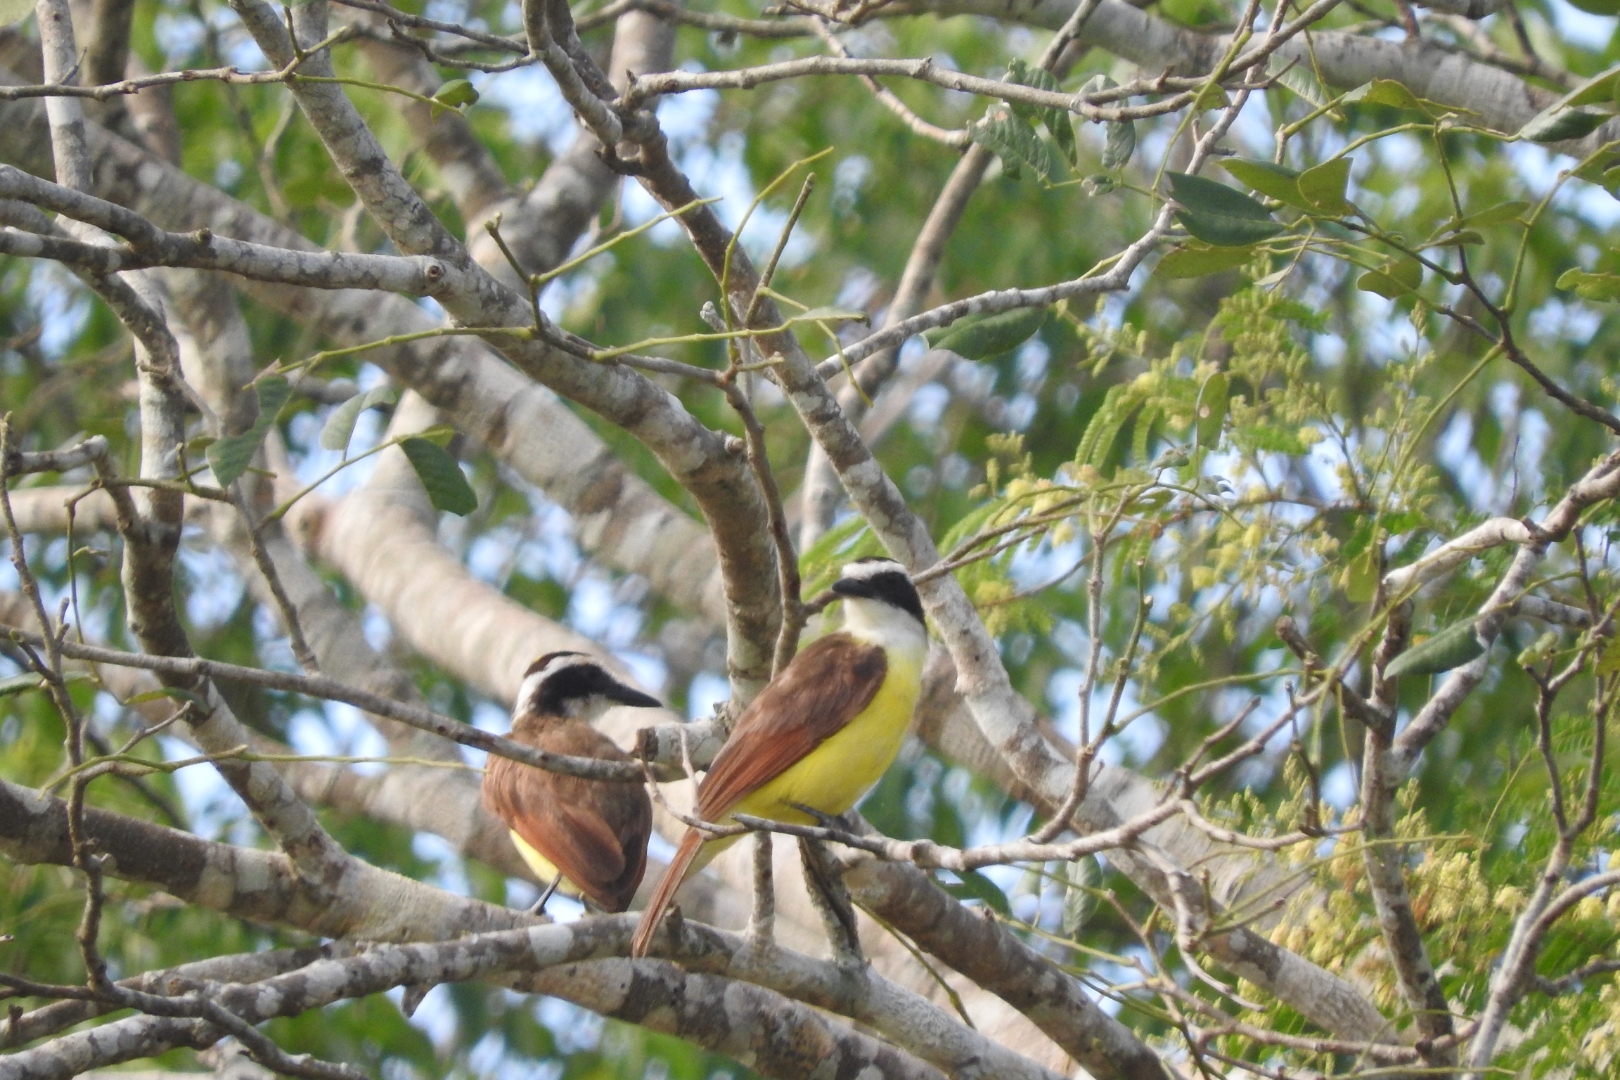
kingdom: Animalia
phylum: Chordata
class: Aves
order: Passeriformes
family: Tyrannidae
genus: Pitangus
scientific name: Pitangus sulphuratus
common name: Great kiskadee
